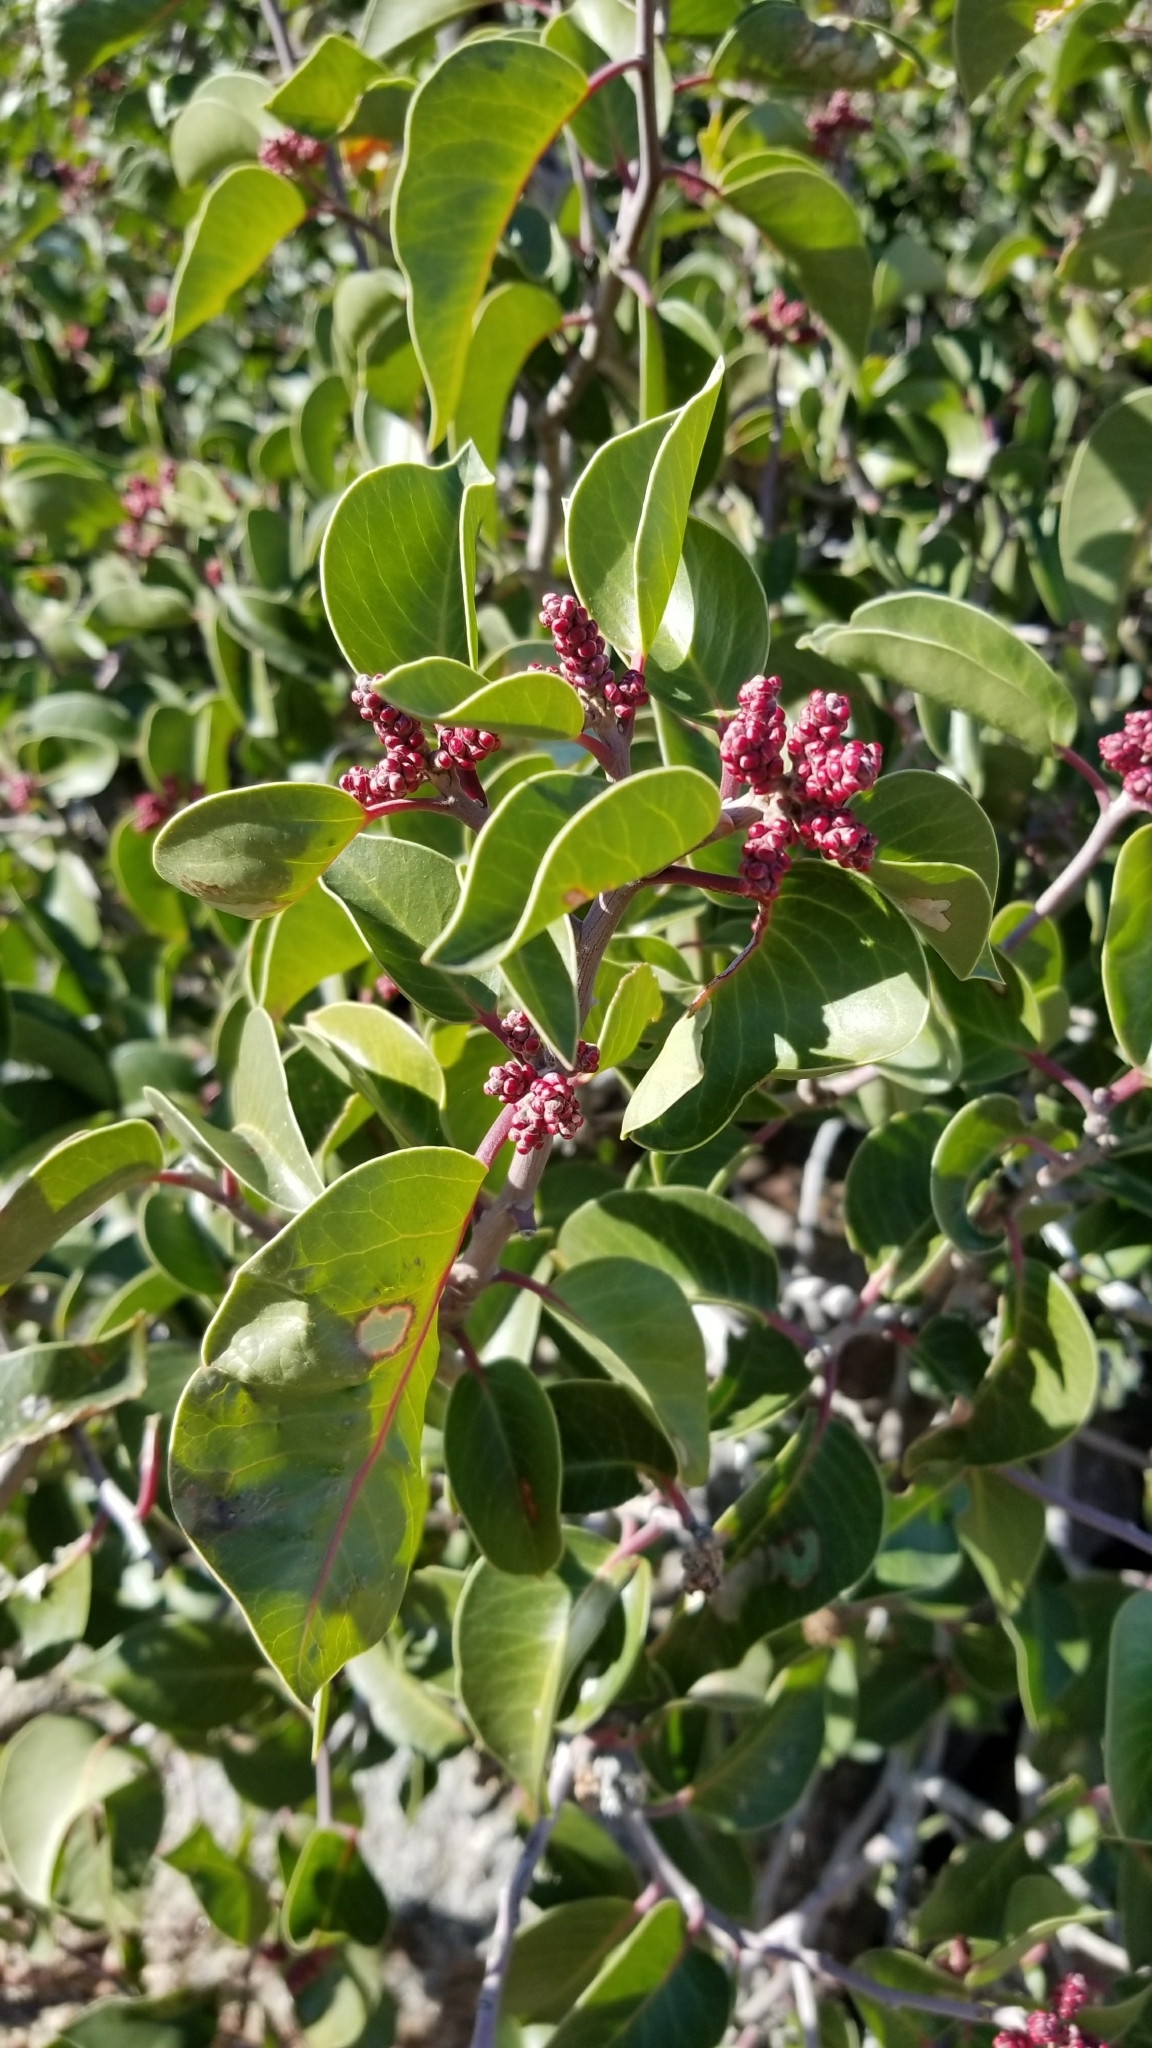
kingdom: Plantae
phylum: Tracheophyta
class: Magnoliopsida
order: Sapindales
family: Anacardiaceae
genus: Rhus
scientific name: Rhus ovata
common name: Sugar sumac
